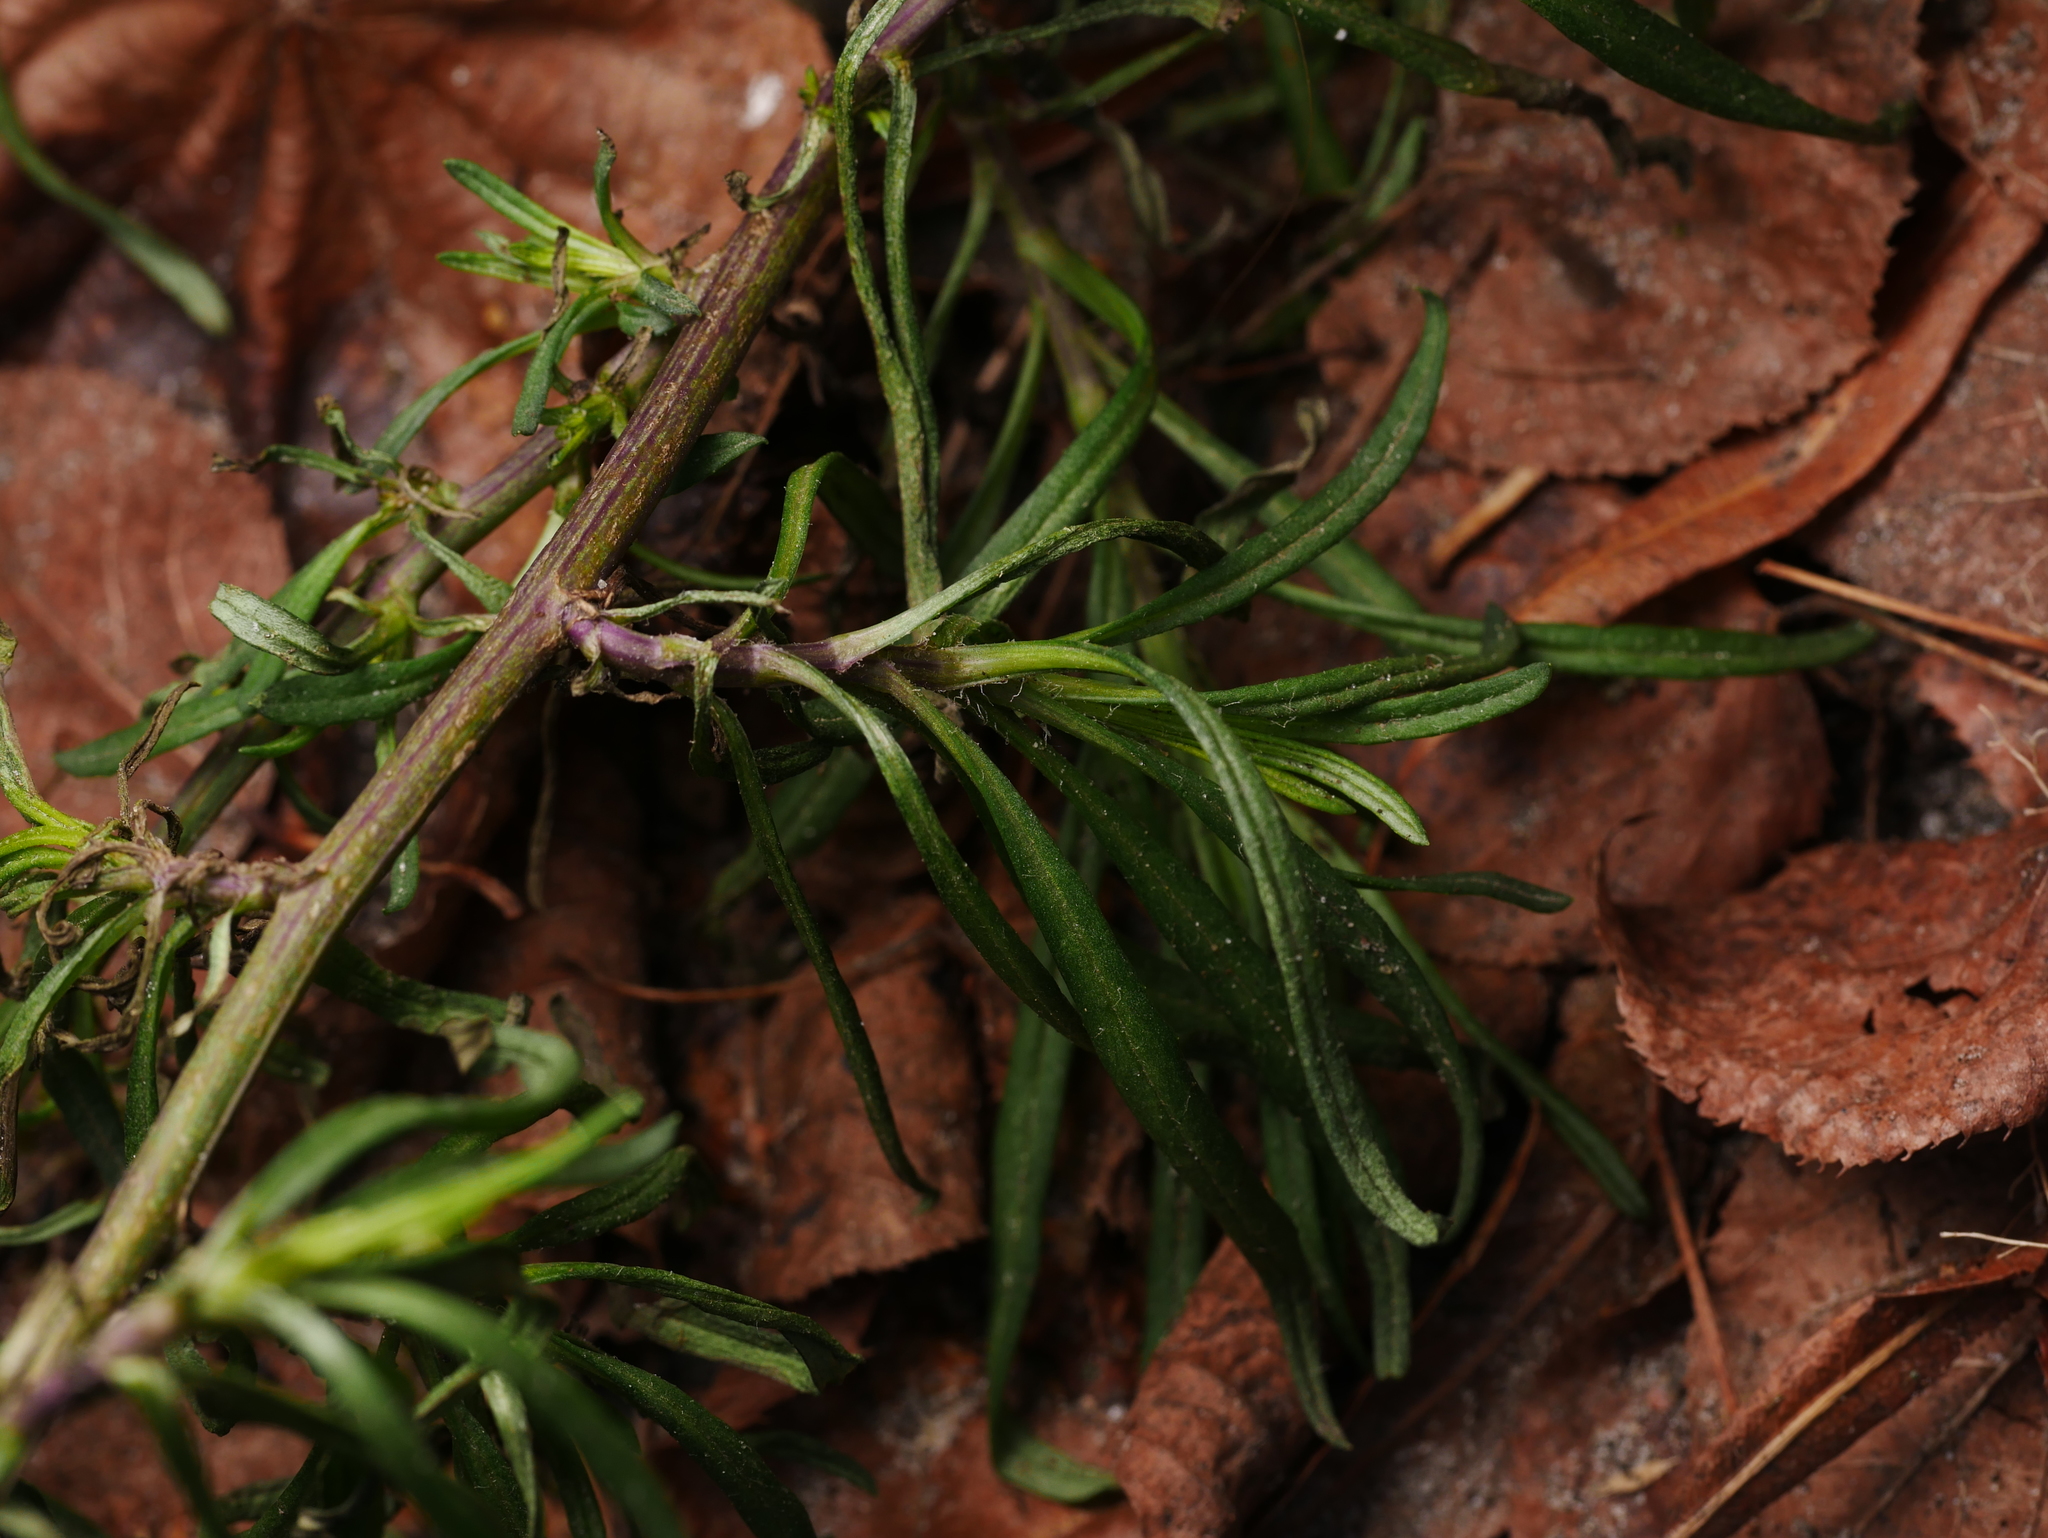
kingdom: Plantae
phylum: Tracheophyta
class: Magnoliopsida
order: Asterales
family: Asteraceae
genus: Senecio
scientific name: Senecio inaequidens
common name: Narrow-leaved ragwort
